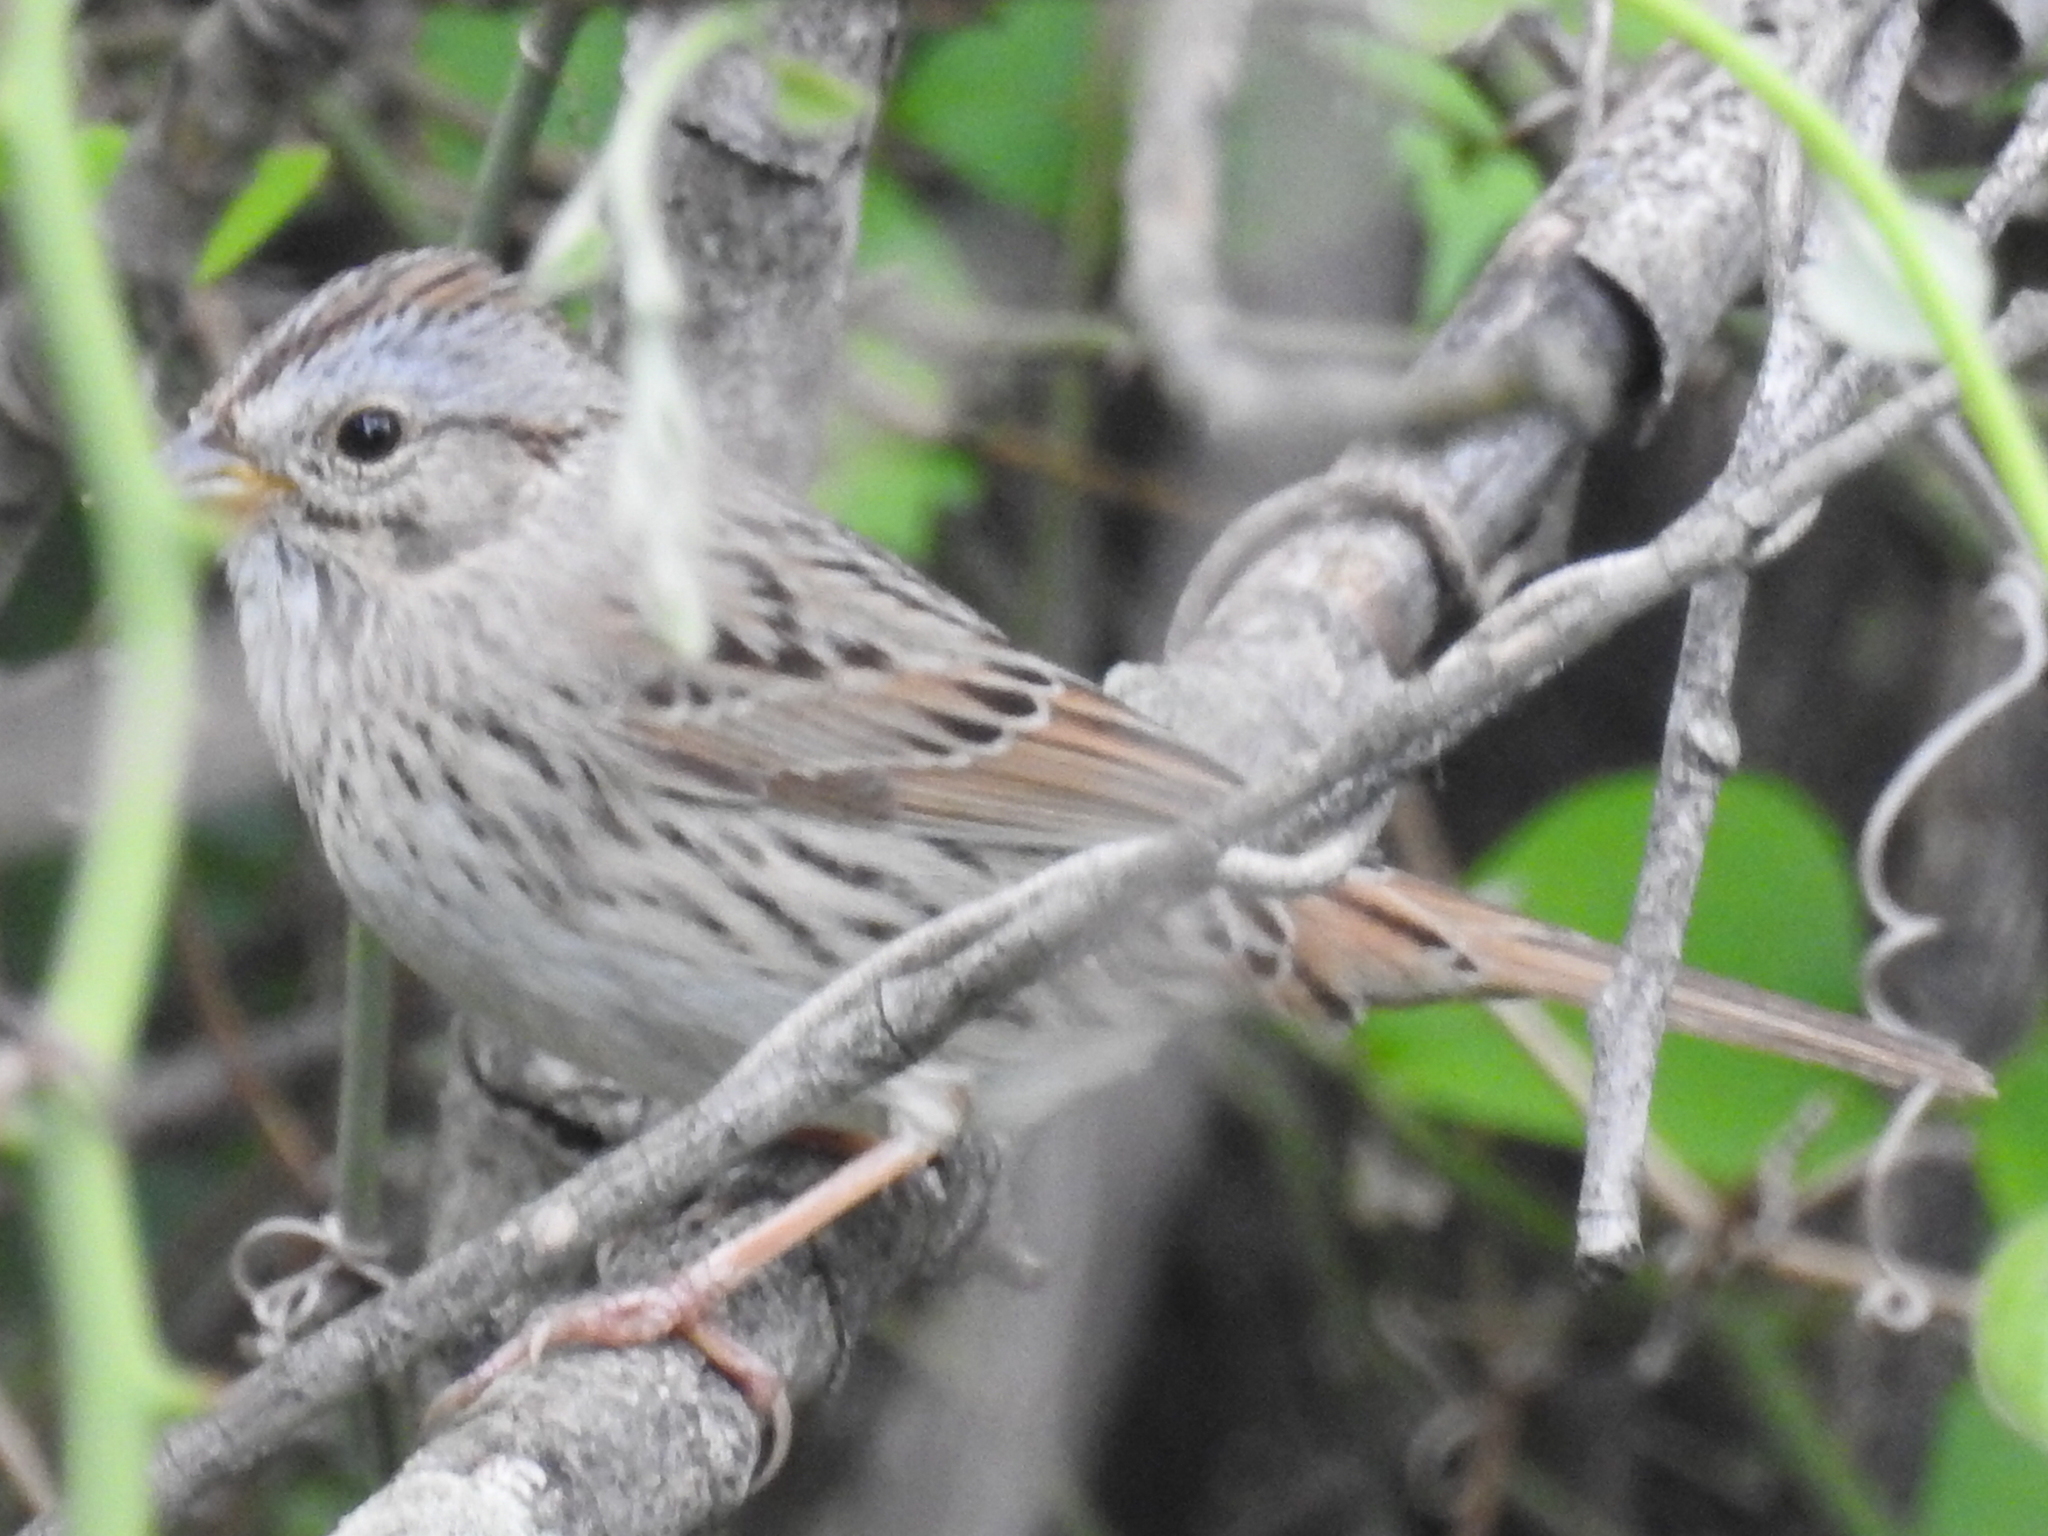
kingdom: Animalia
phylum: Chordata
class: Aves
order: Passeriformes
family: Passerellidae
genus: Melospiza
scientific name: Melospiza lincolnii
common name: Lincoln's sparrow
